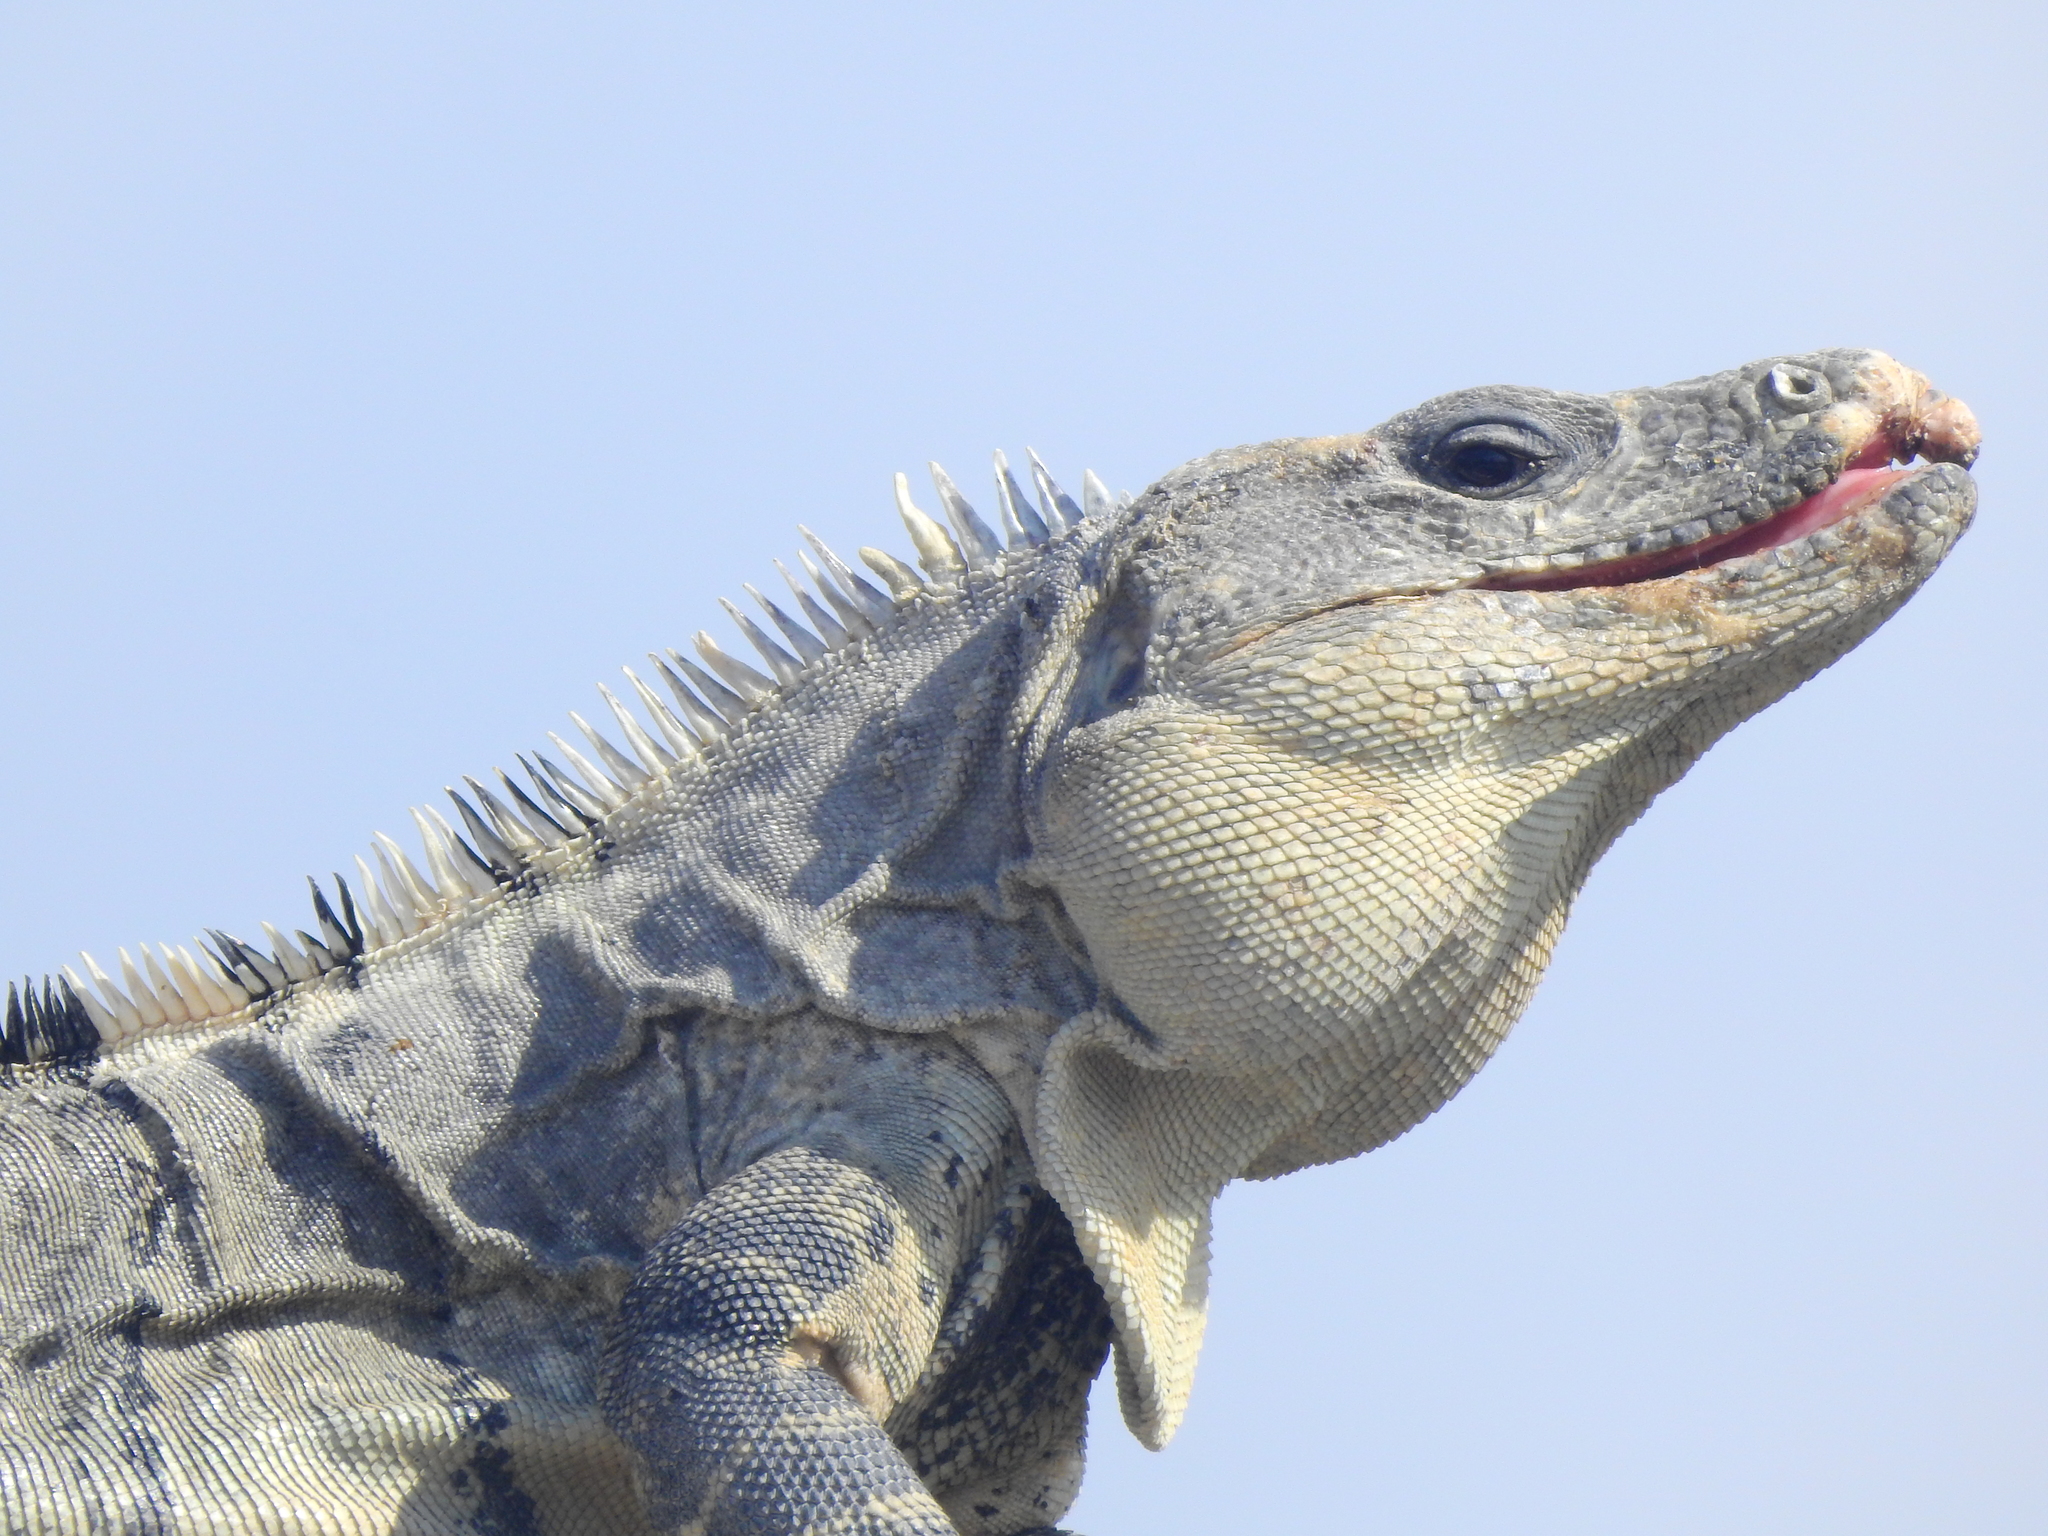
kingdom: Animalia
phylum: Chordata
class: Squamata
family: Iguanidae
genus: Ctenosaura
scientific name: Ctenosaura similis
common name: Black spiny-tailed iguana
